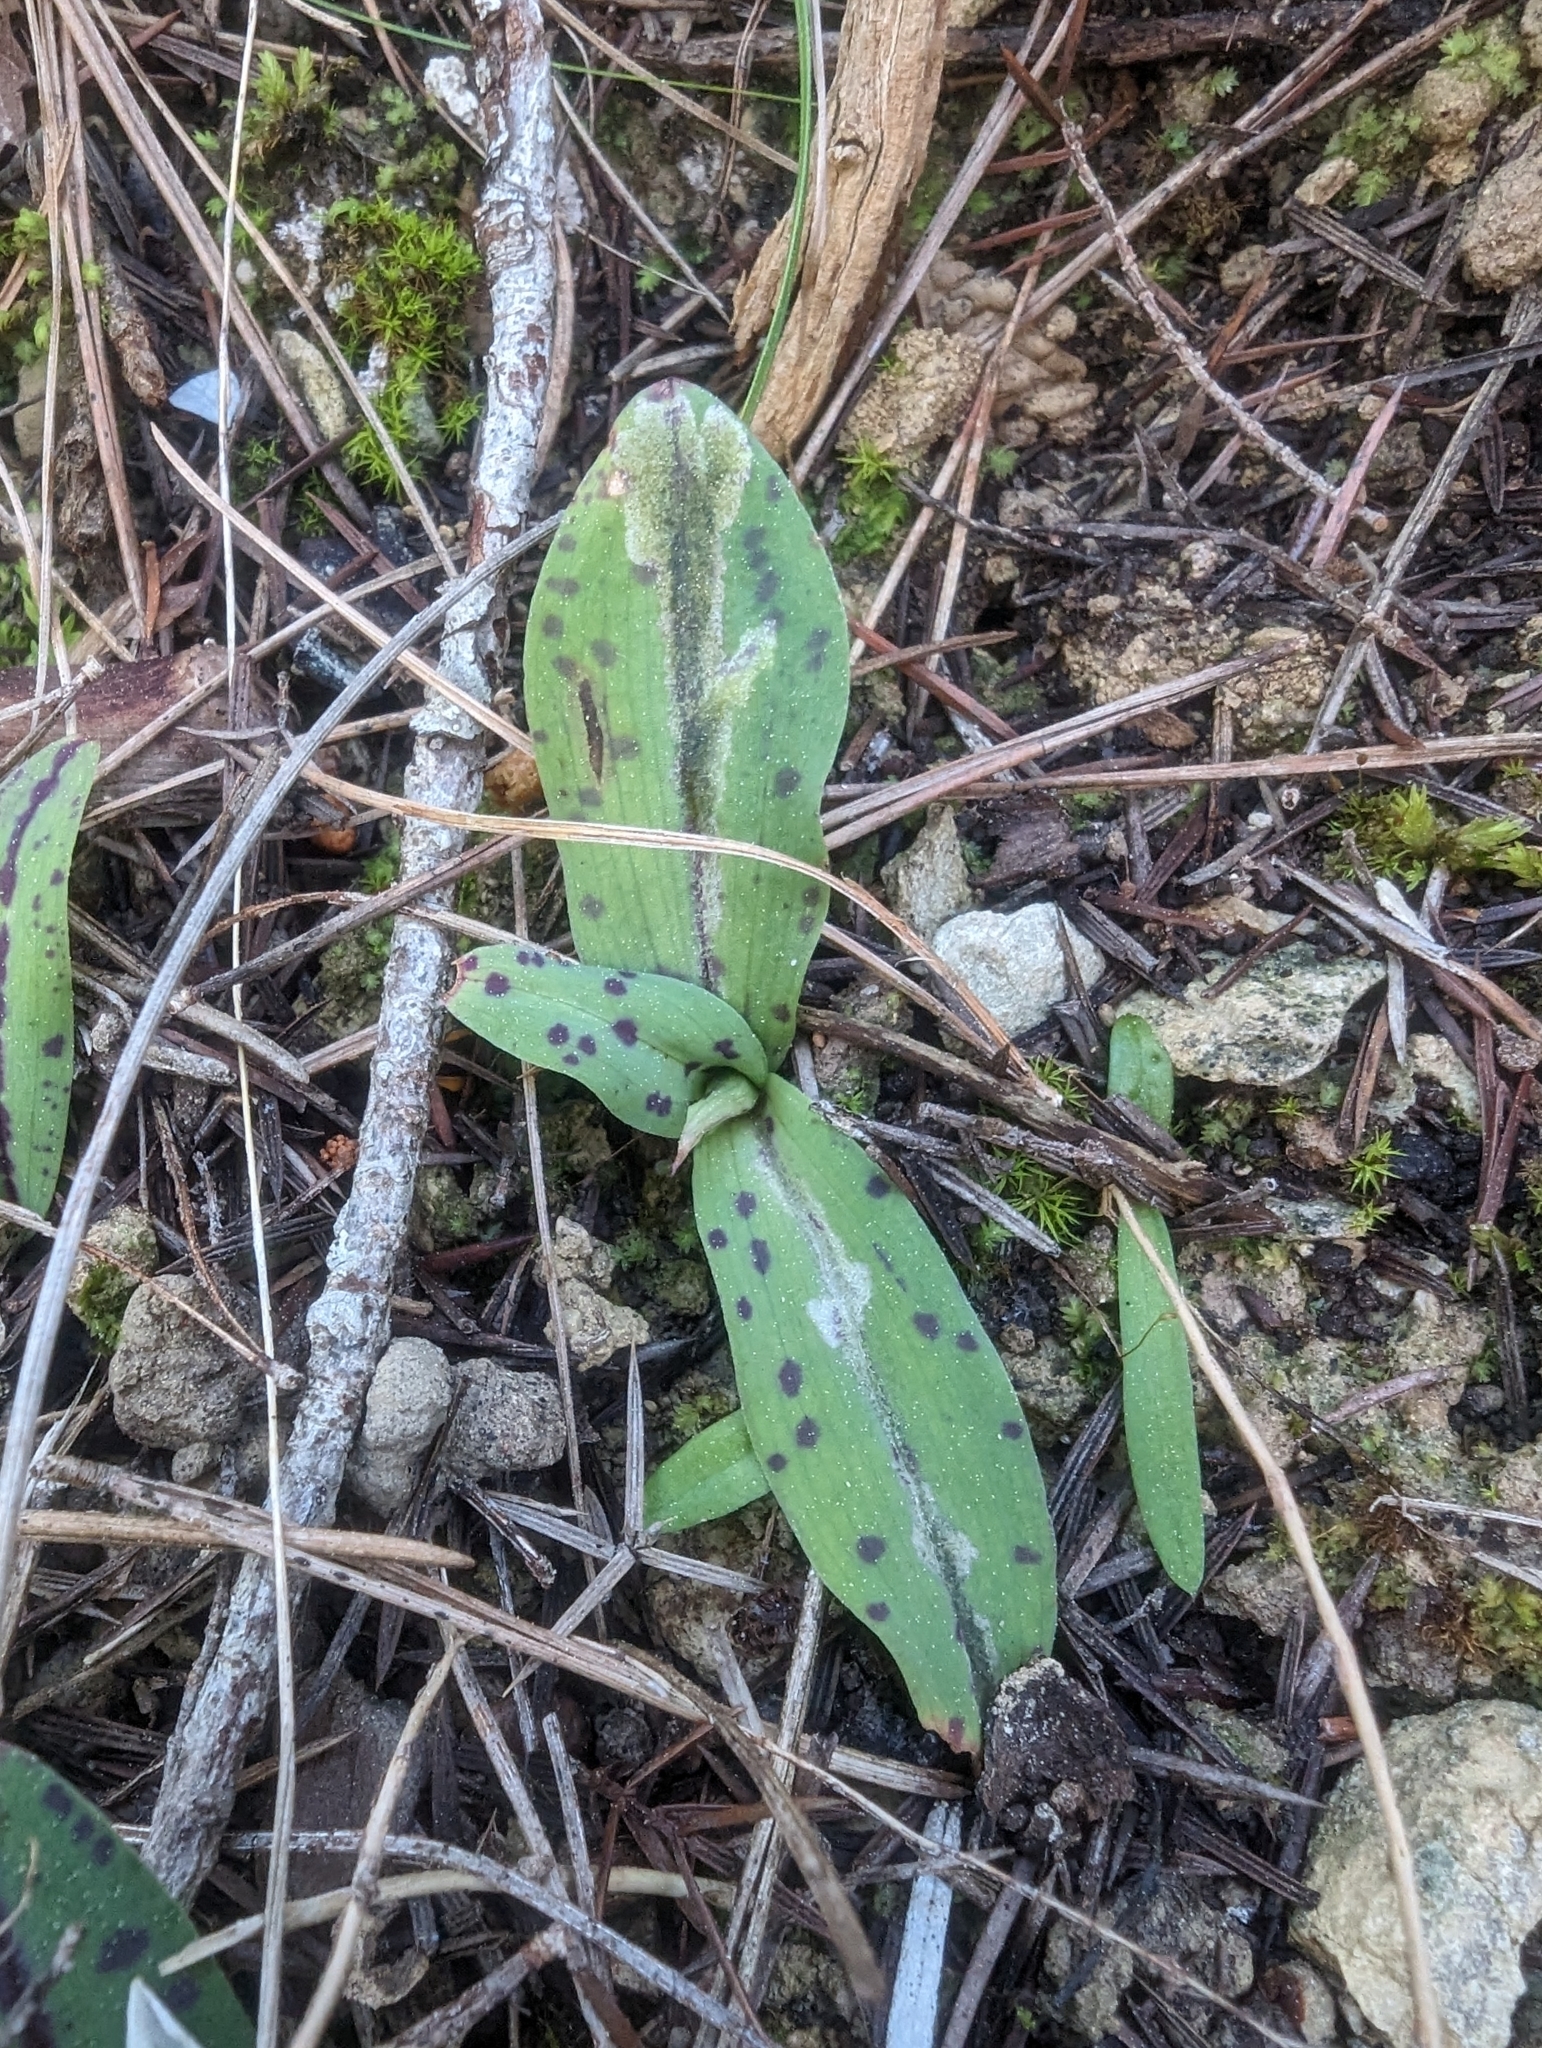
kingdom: Plantae
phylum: Tracheophyta
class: Liliopsida
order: Asparagales
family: Orchidaceae
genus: Neotinea
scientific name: Neotinea maculata
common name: Dense-flowered orchid
